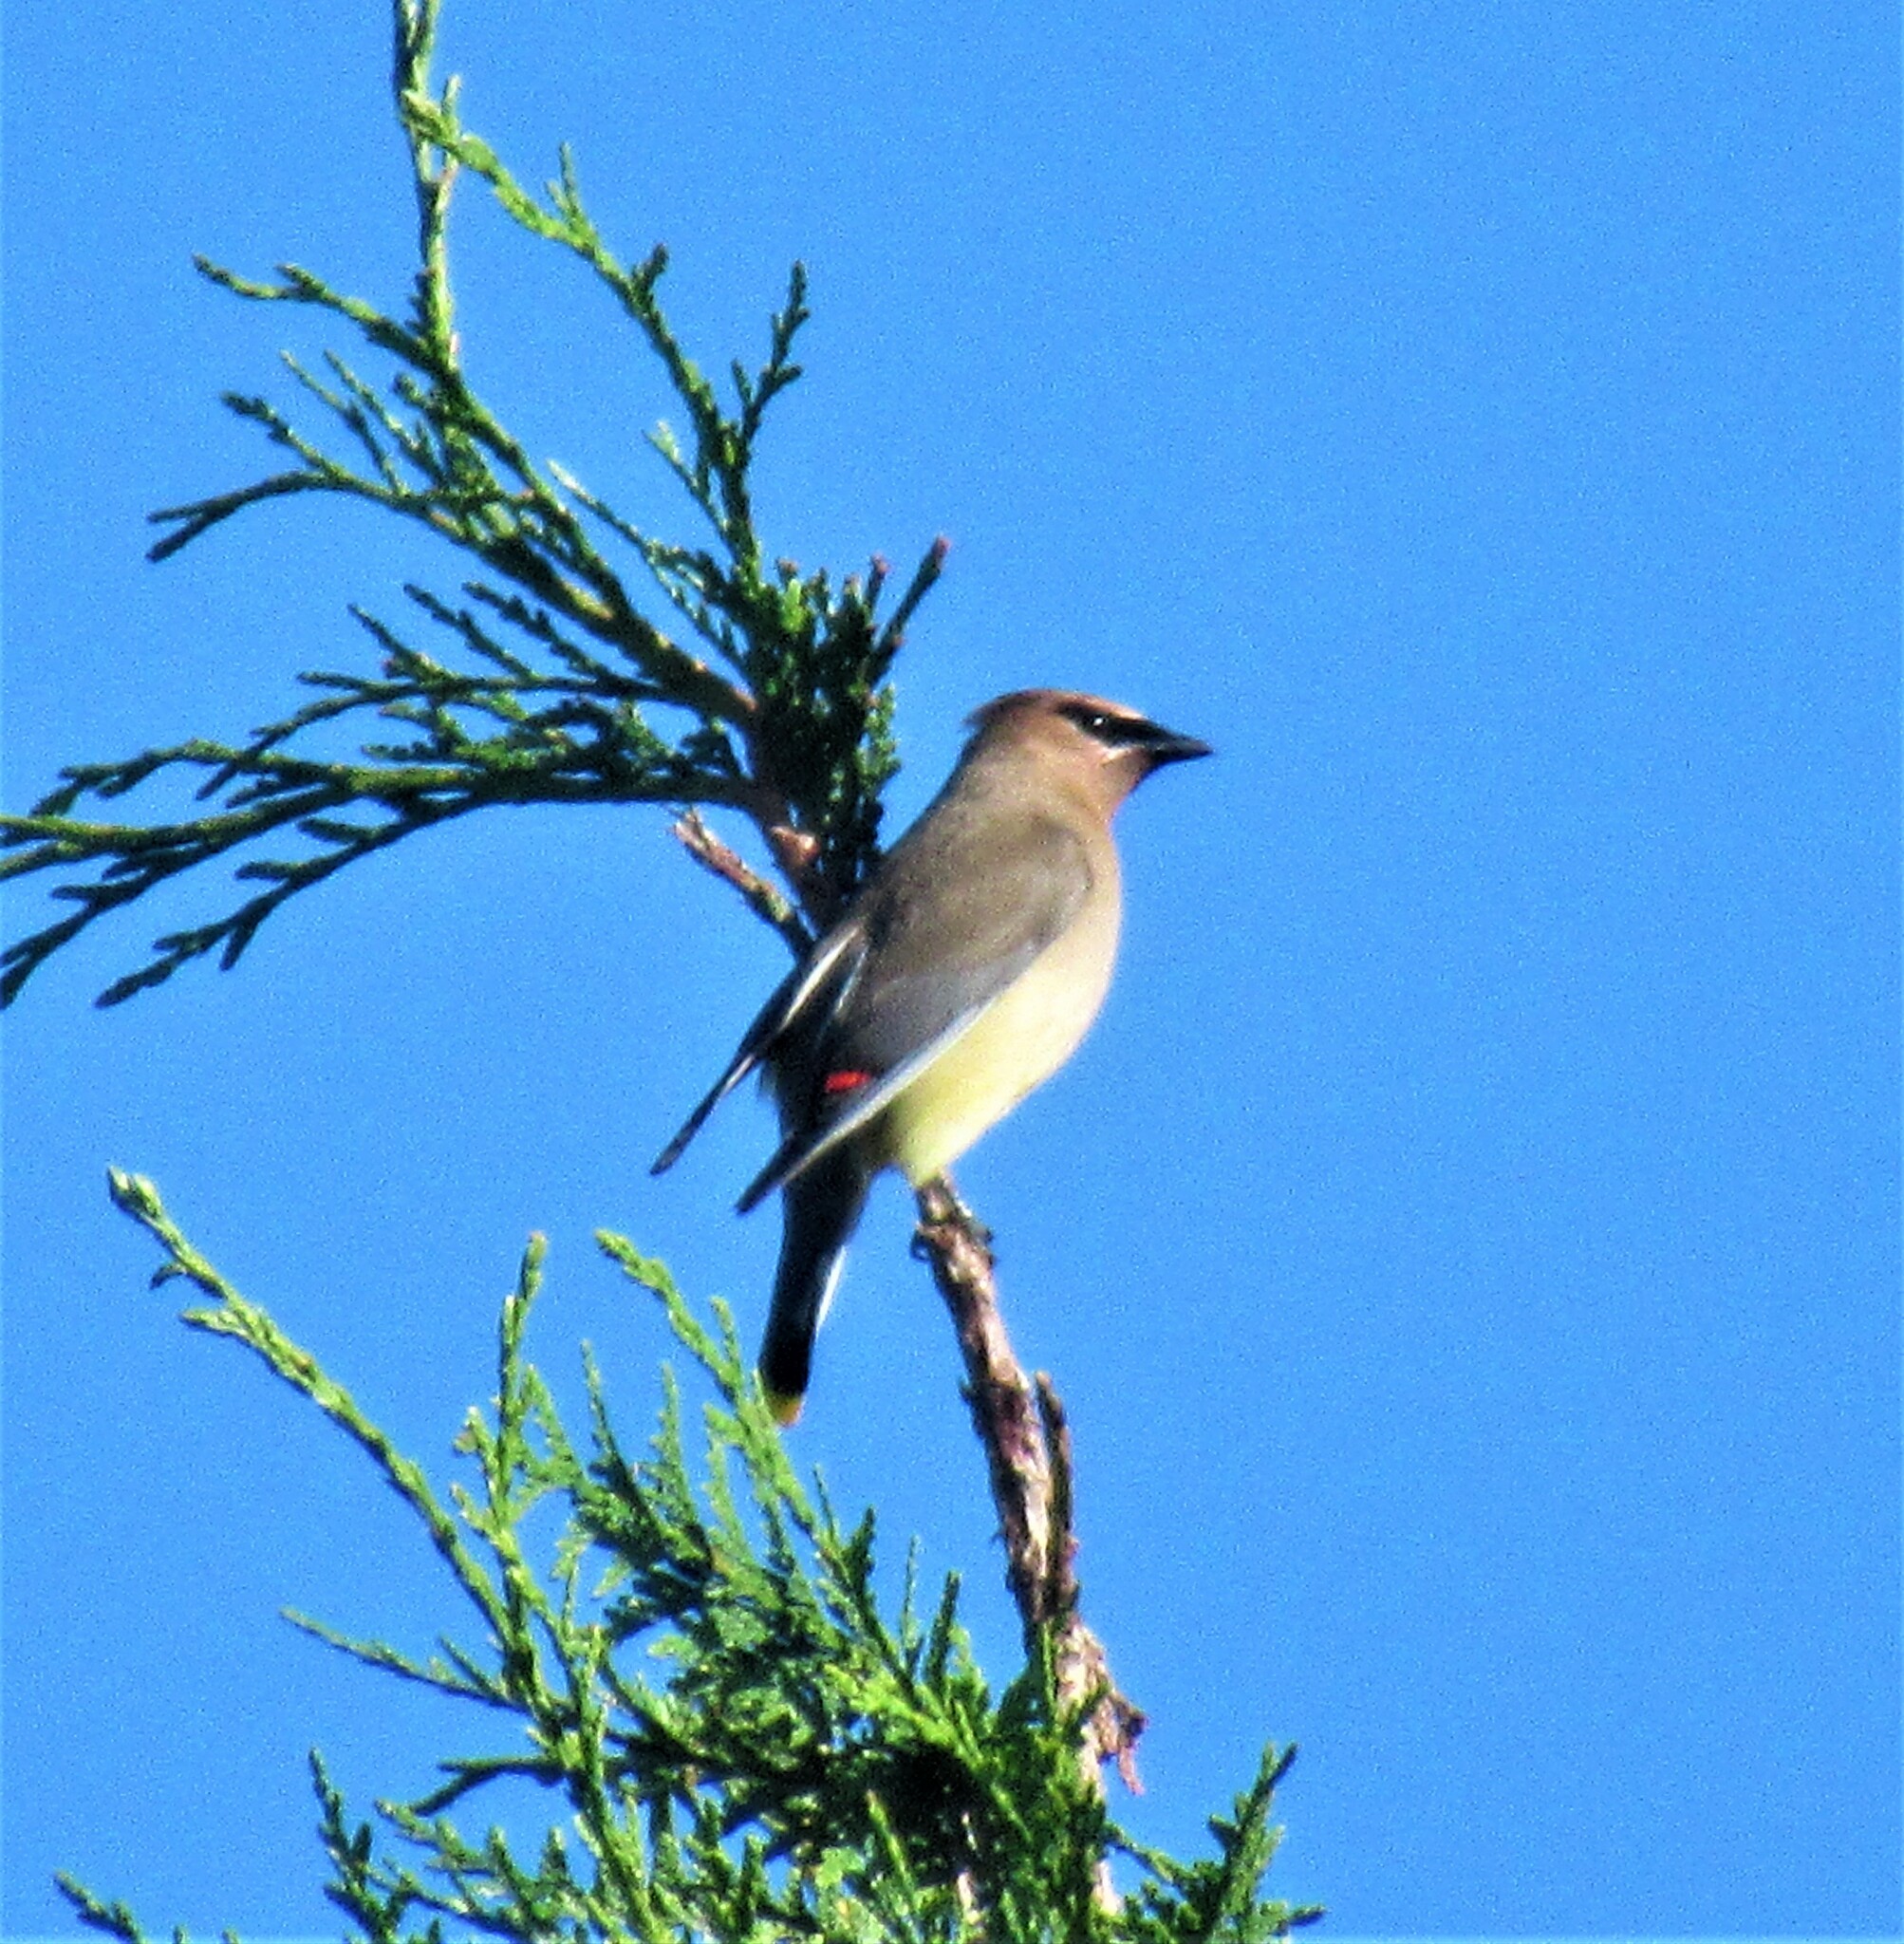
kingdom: Animalia
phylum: Chordata
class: Aves
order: Passeriformes
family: Bombycillidae
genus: Bombycilla
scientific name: Bombycilla cedrorum
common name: Cedar waxwing
